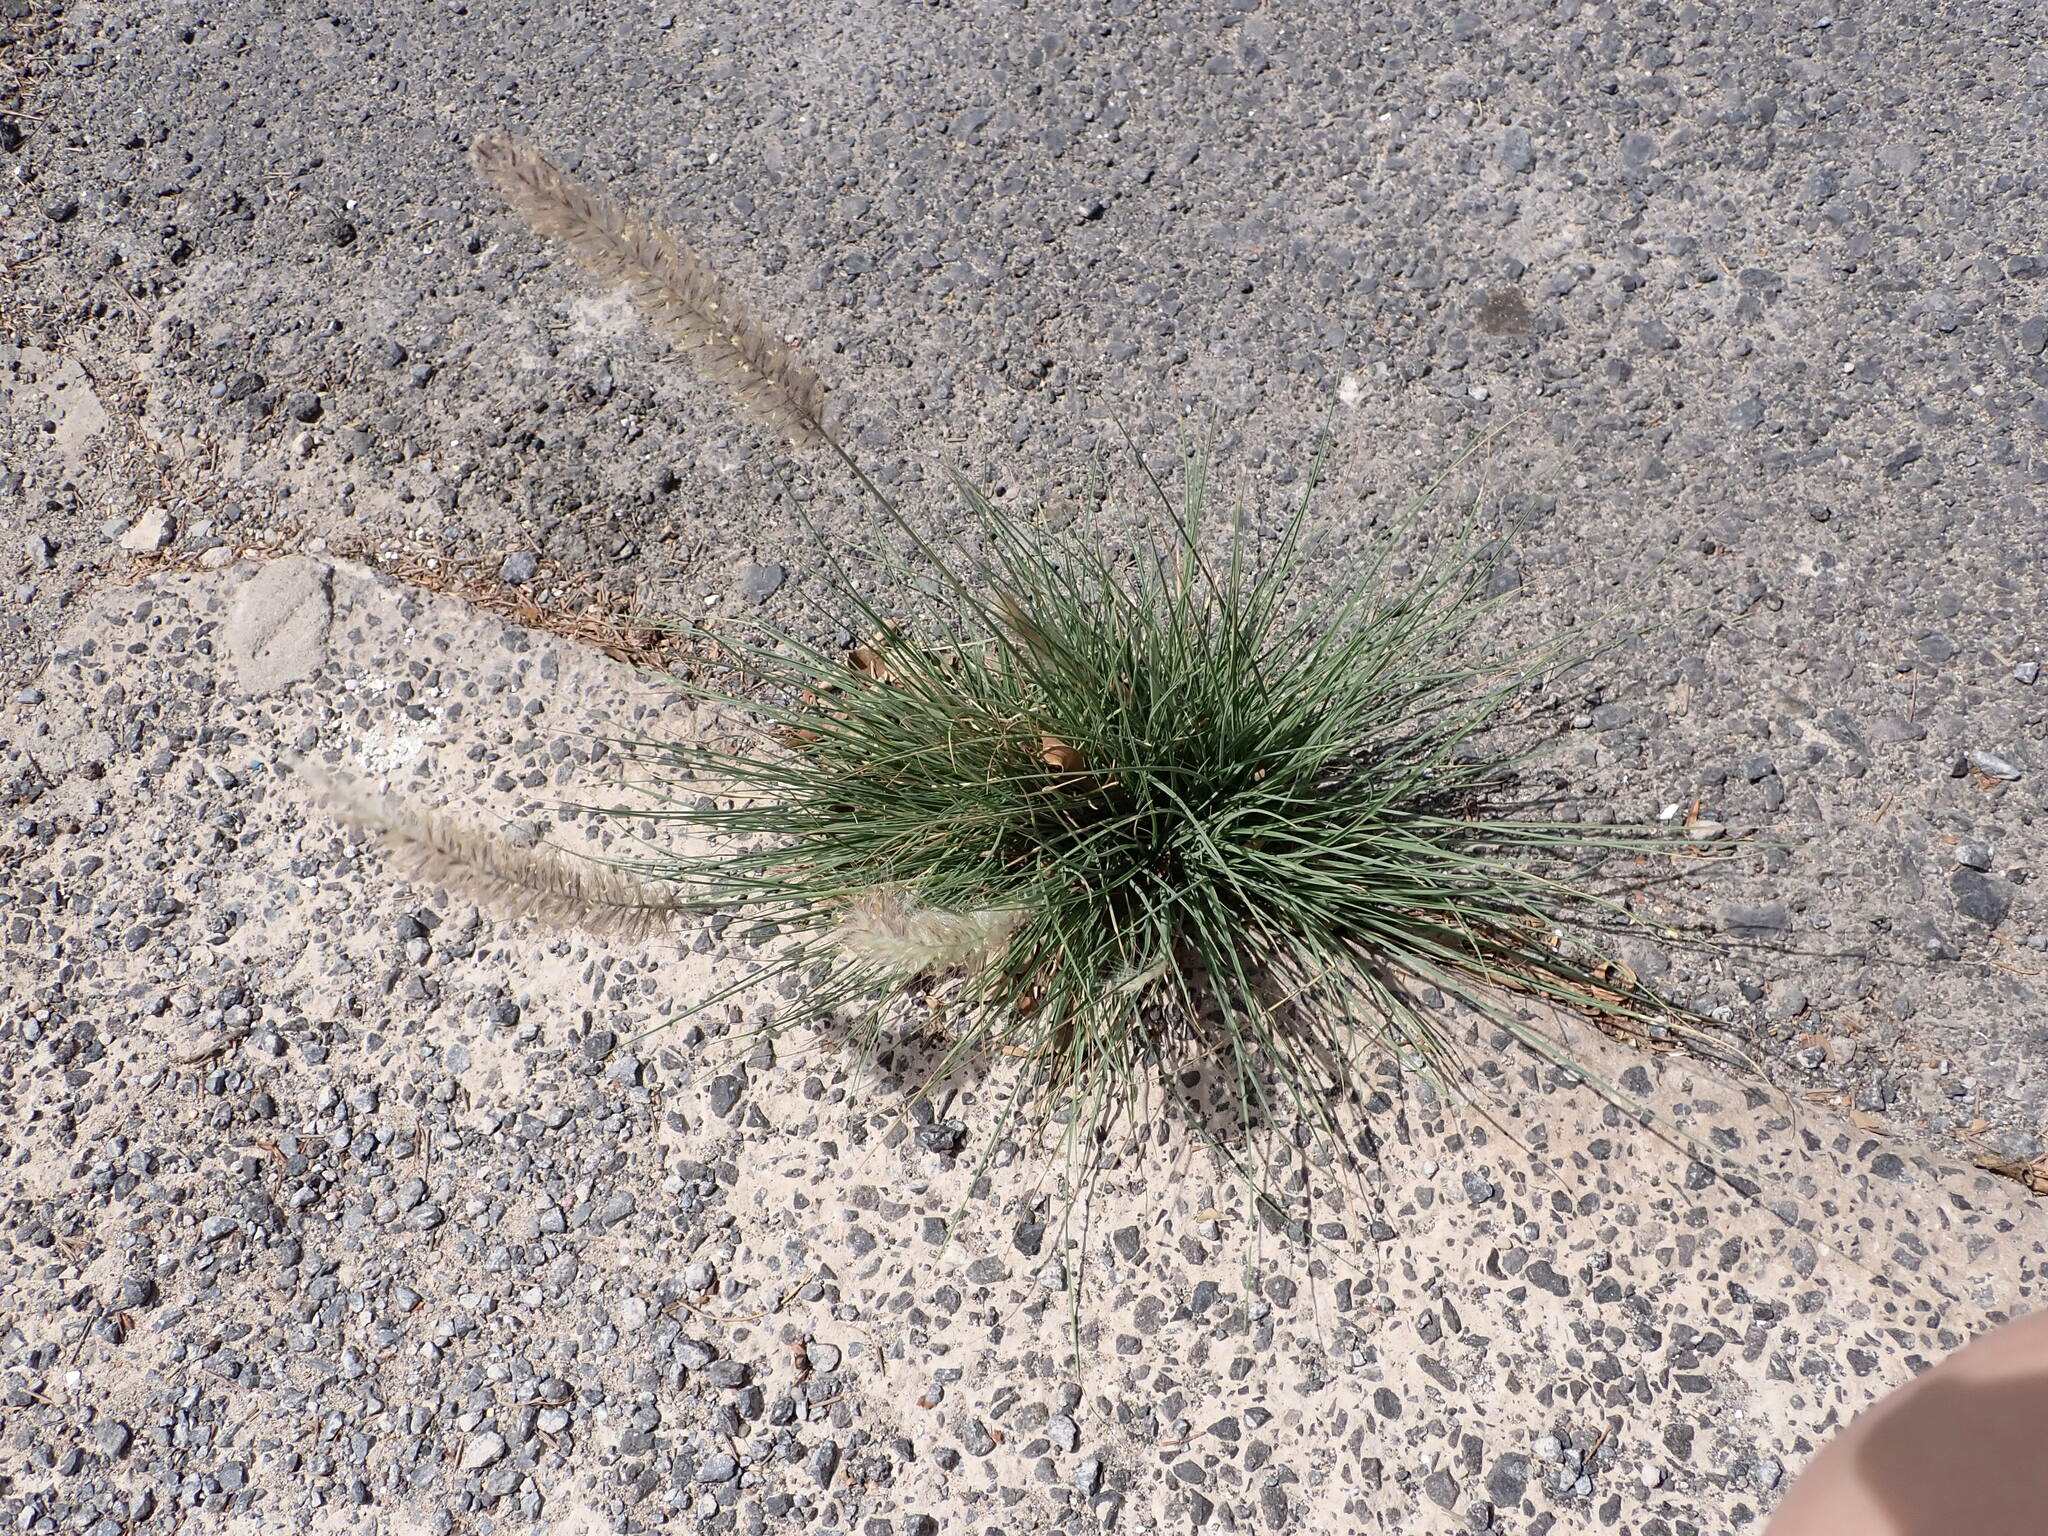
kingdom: Plantae
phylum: Tracheophyta
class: Liliopsida
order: Poales
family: Poaceae
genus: Cenchrus
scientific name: Cenchrus setaceus
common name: Crimson fountaingrass
